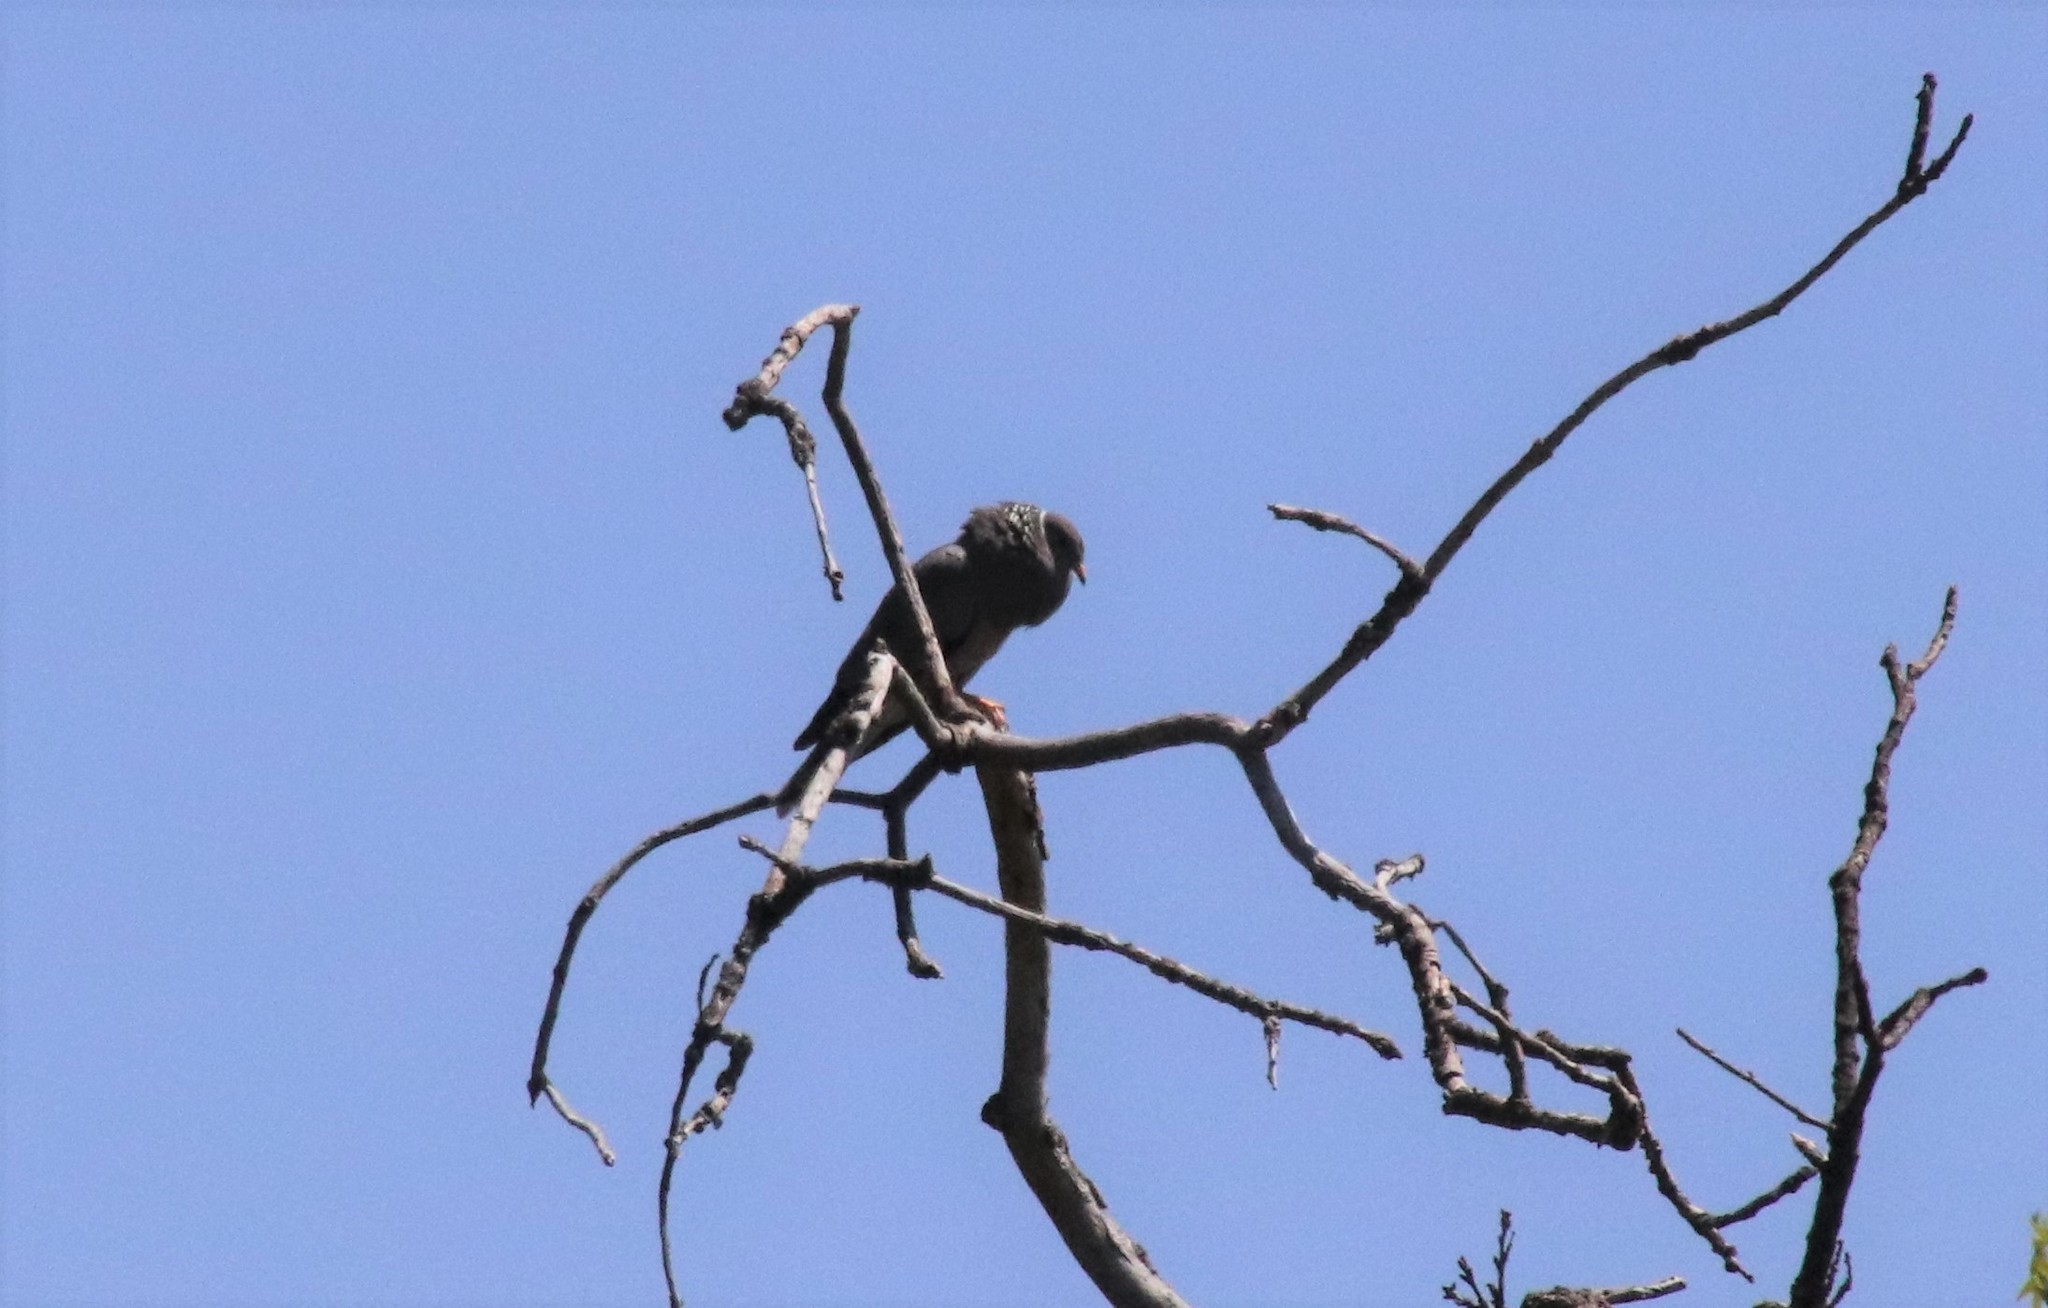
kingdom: Animalia
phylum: Chordata
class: Aves
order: Columbiformes
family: Columbidae
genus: Patagioenas
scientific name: Patagioenas fasciata
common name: Band-tailed pigeon
